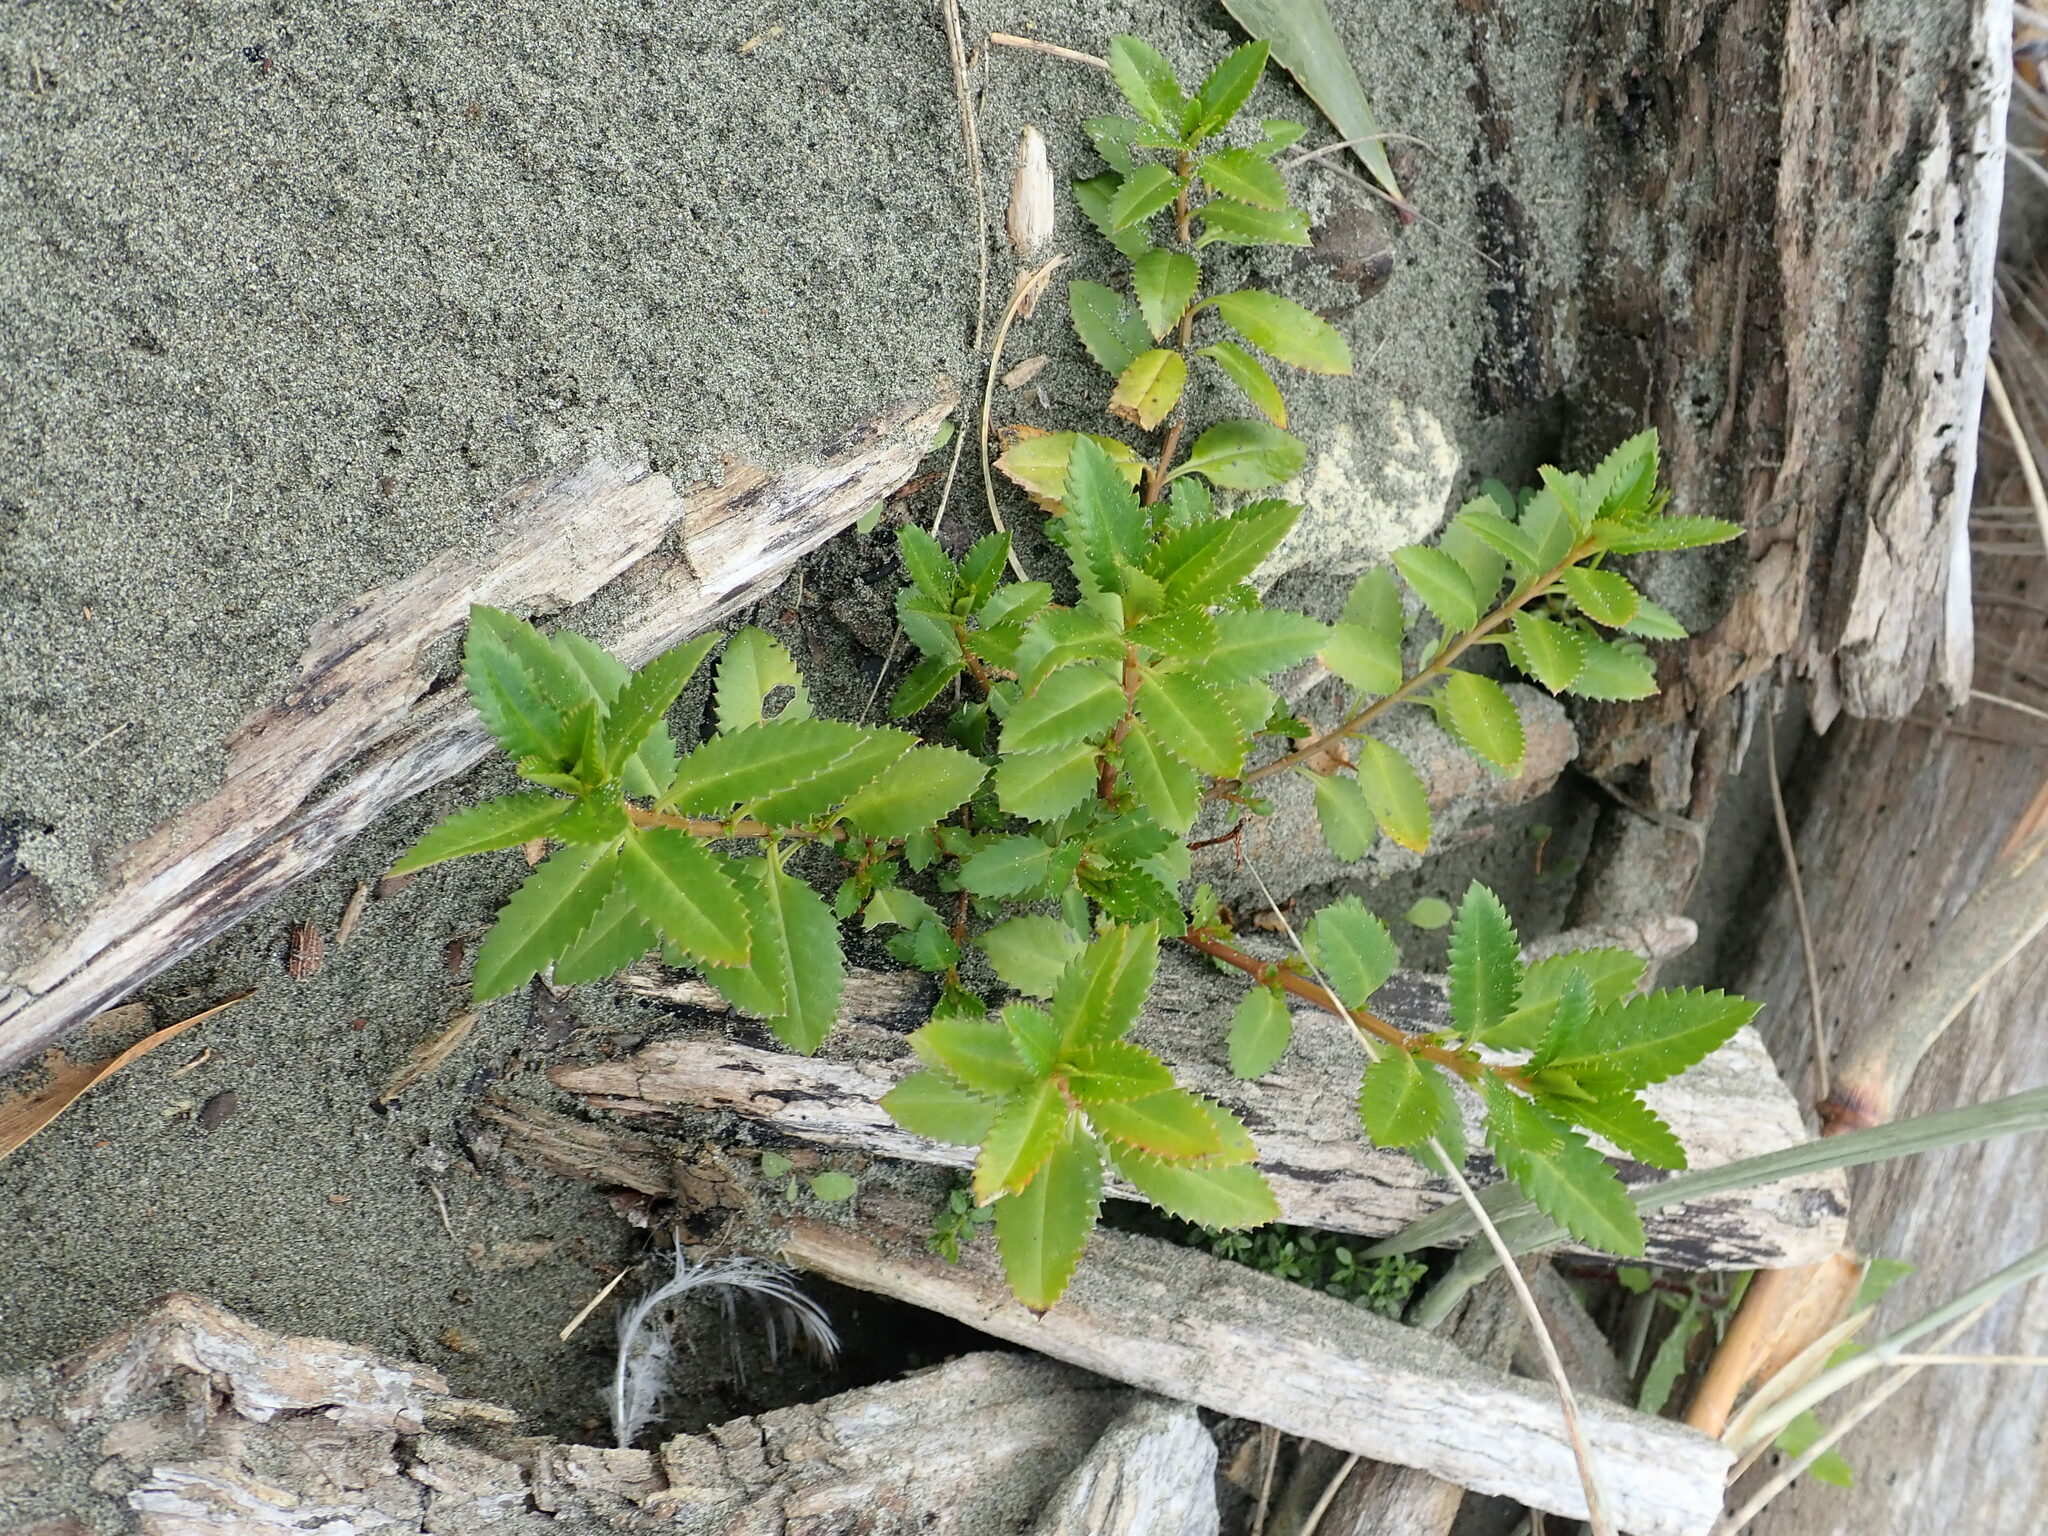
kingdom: Plantae
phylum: Tracheophyta
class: Magnoliopsida
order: Saxifragales
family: Haloragaceae
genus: Haloragis
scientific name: Haloragis erecta
